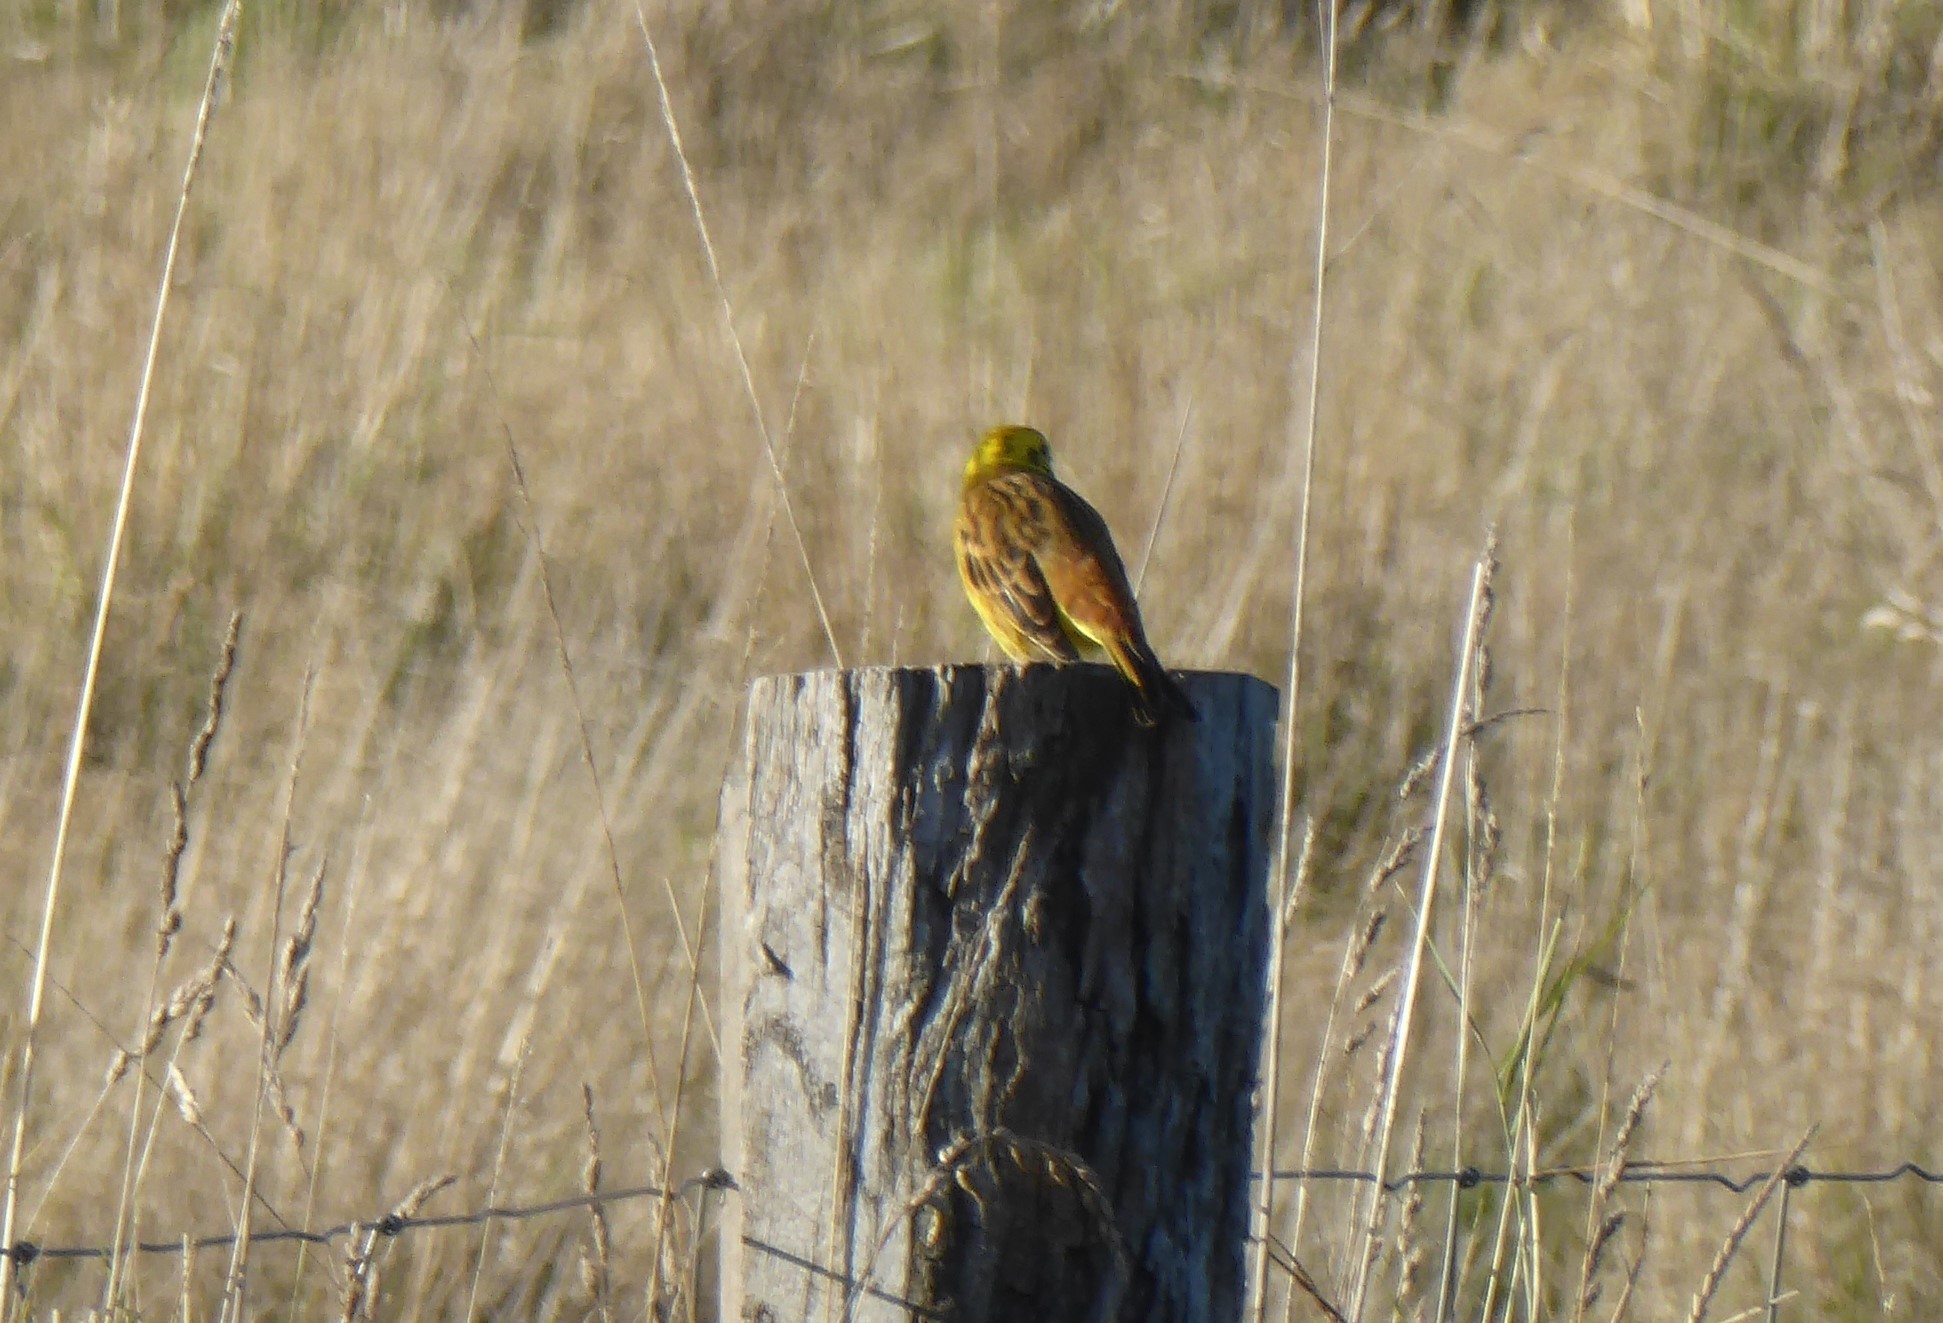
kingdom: Animalia
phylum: Chordata
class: Aves
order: Passeriformes
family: Emberizidae
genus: Emberiza
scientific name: Emberiza citrinella
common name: Yellowhammer
